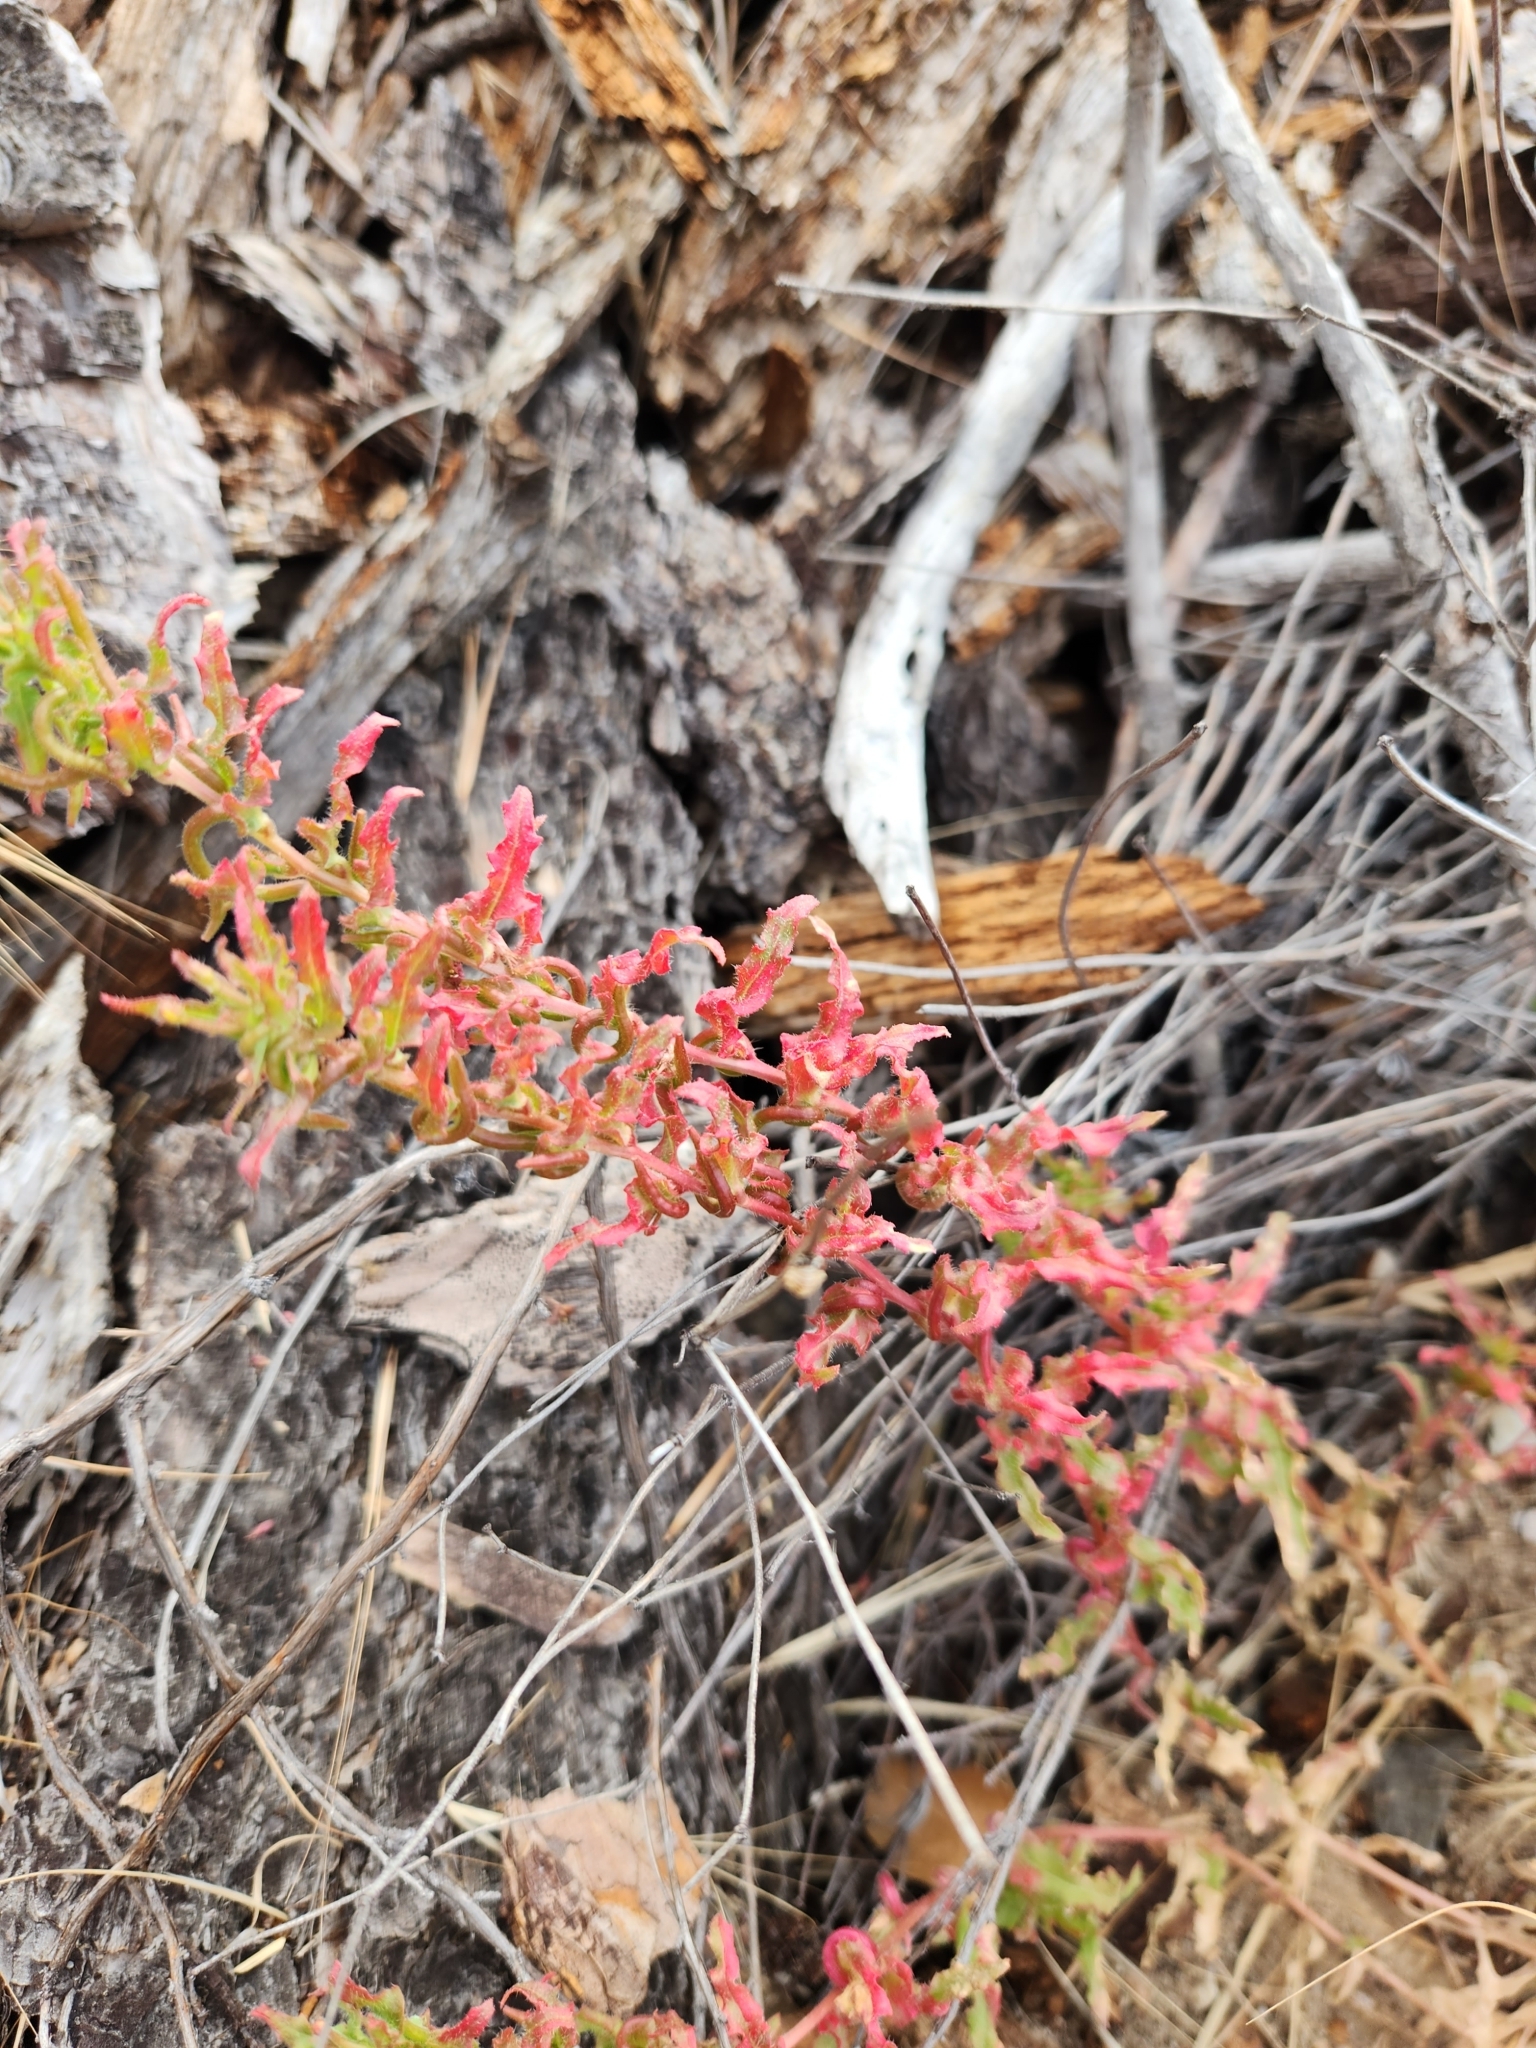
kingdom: Plantae
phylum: Tracheophyta
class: Magnoliopsida
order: Myrtales
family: Onagraceae
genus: Camissoniopsis
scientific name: Camissoniopsis hirtella
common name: Santa cruz island suncup
